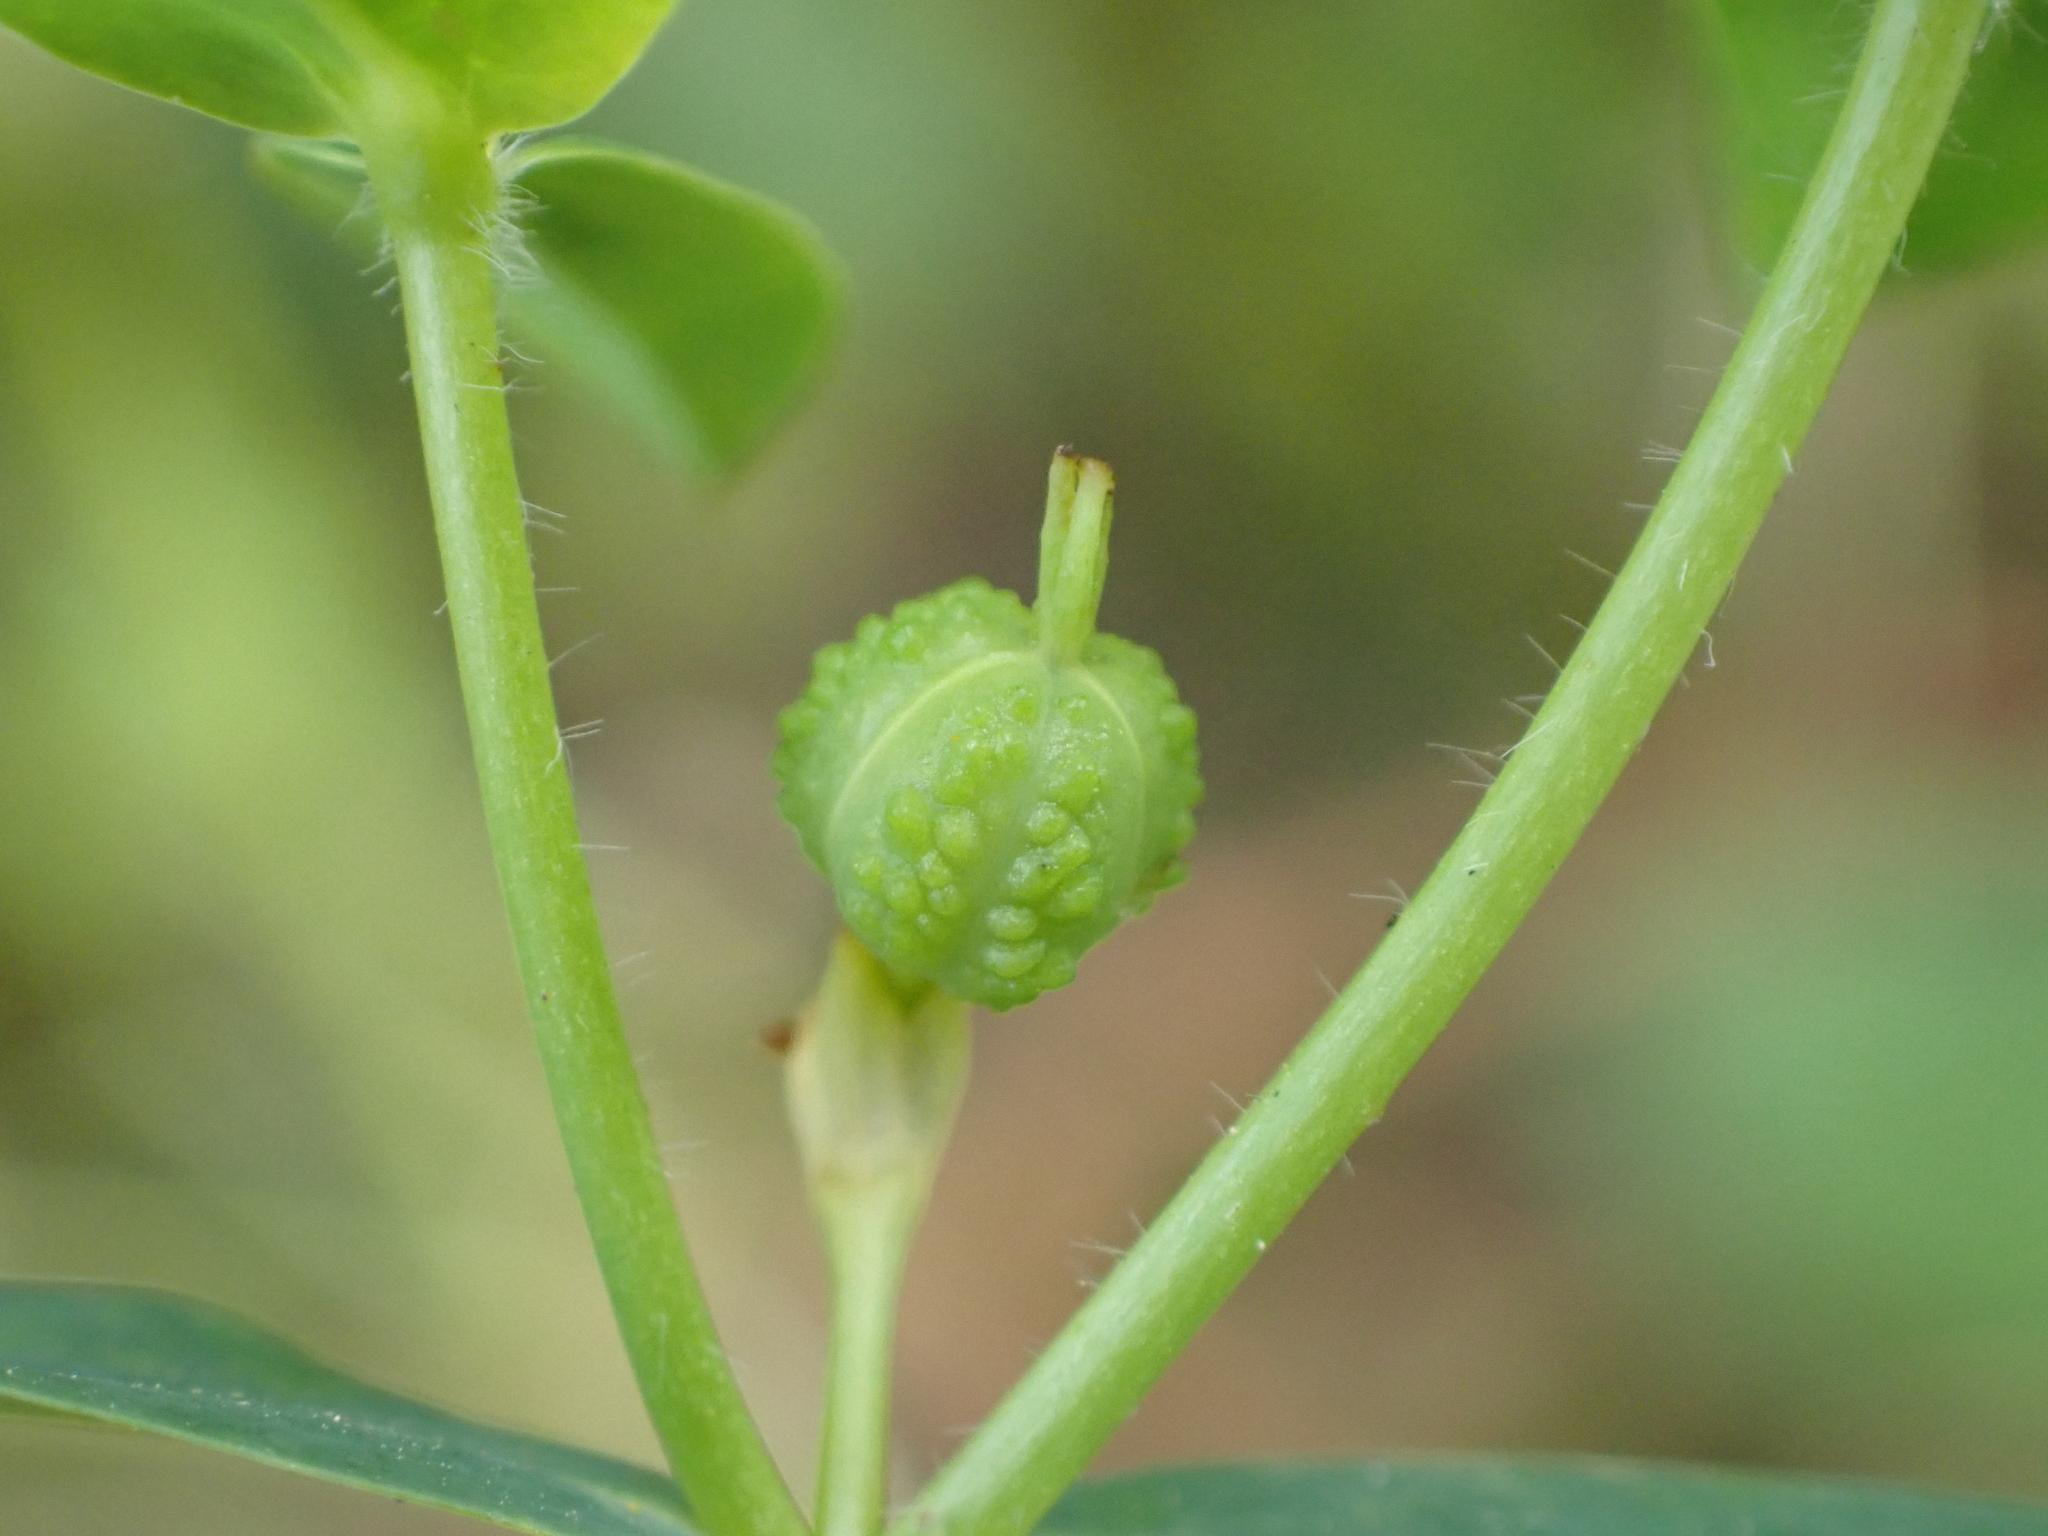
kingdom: Plantae
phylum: Tracheophyta
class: Magnoliopsida
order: Malpighiales
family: Euphorbiaceae
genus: Euphorbia
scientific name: Euphorbia oblongata
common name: Balkan spurge
